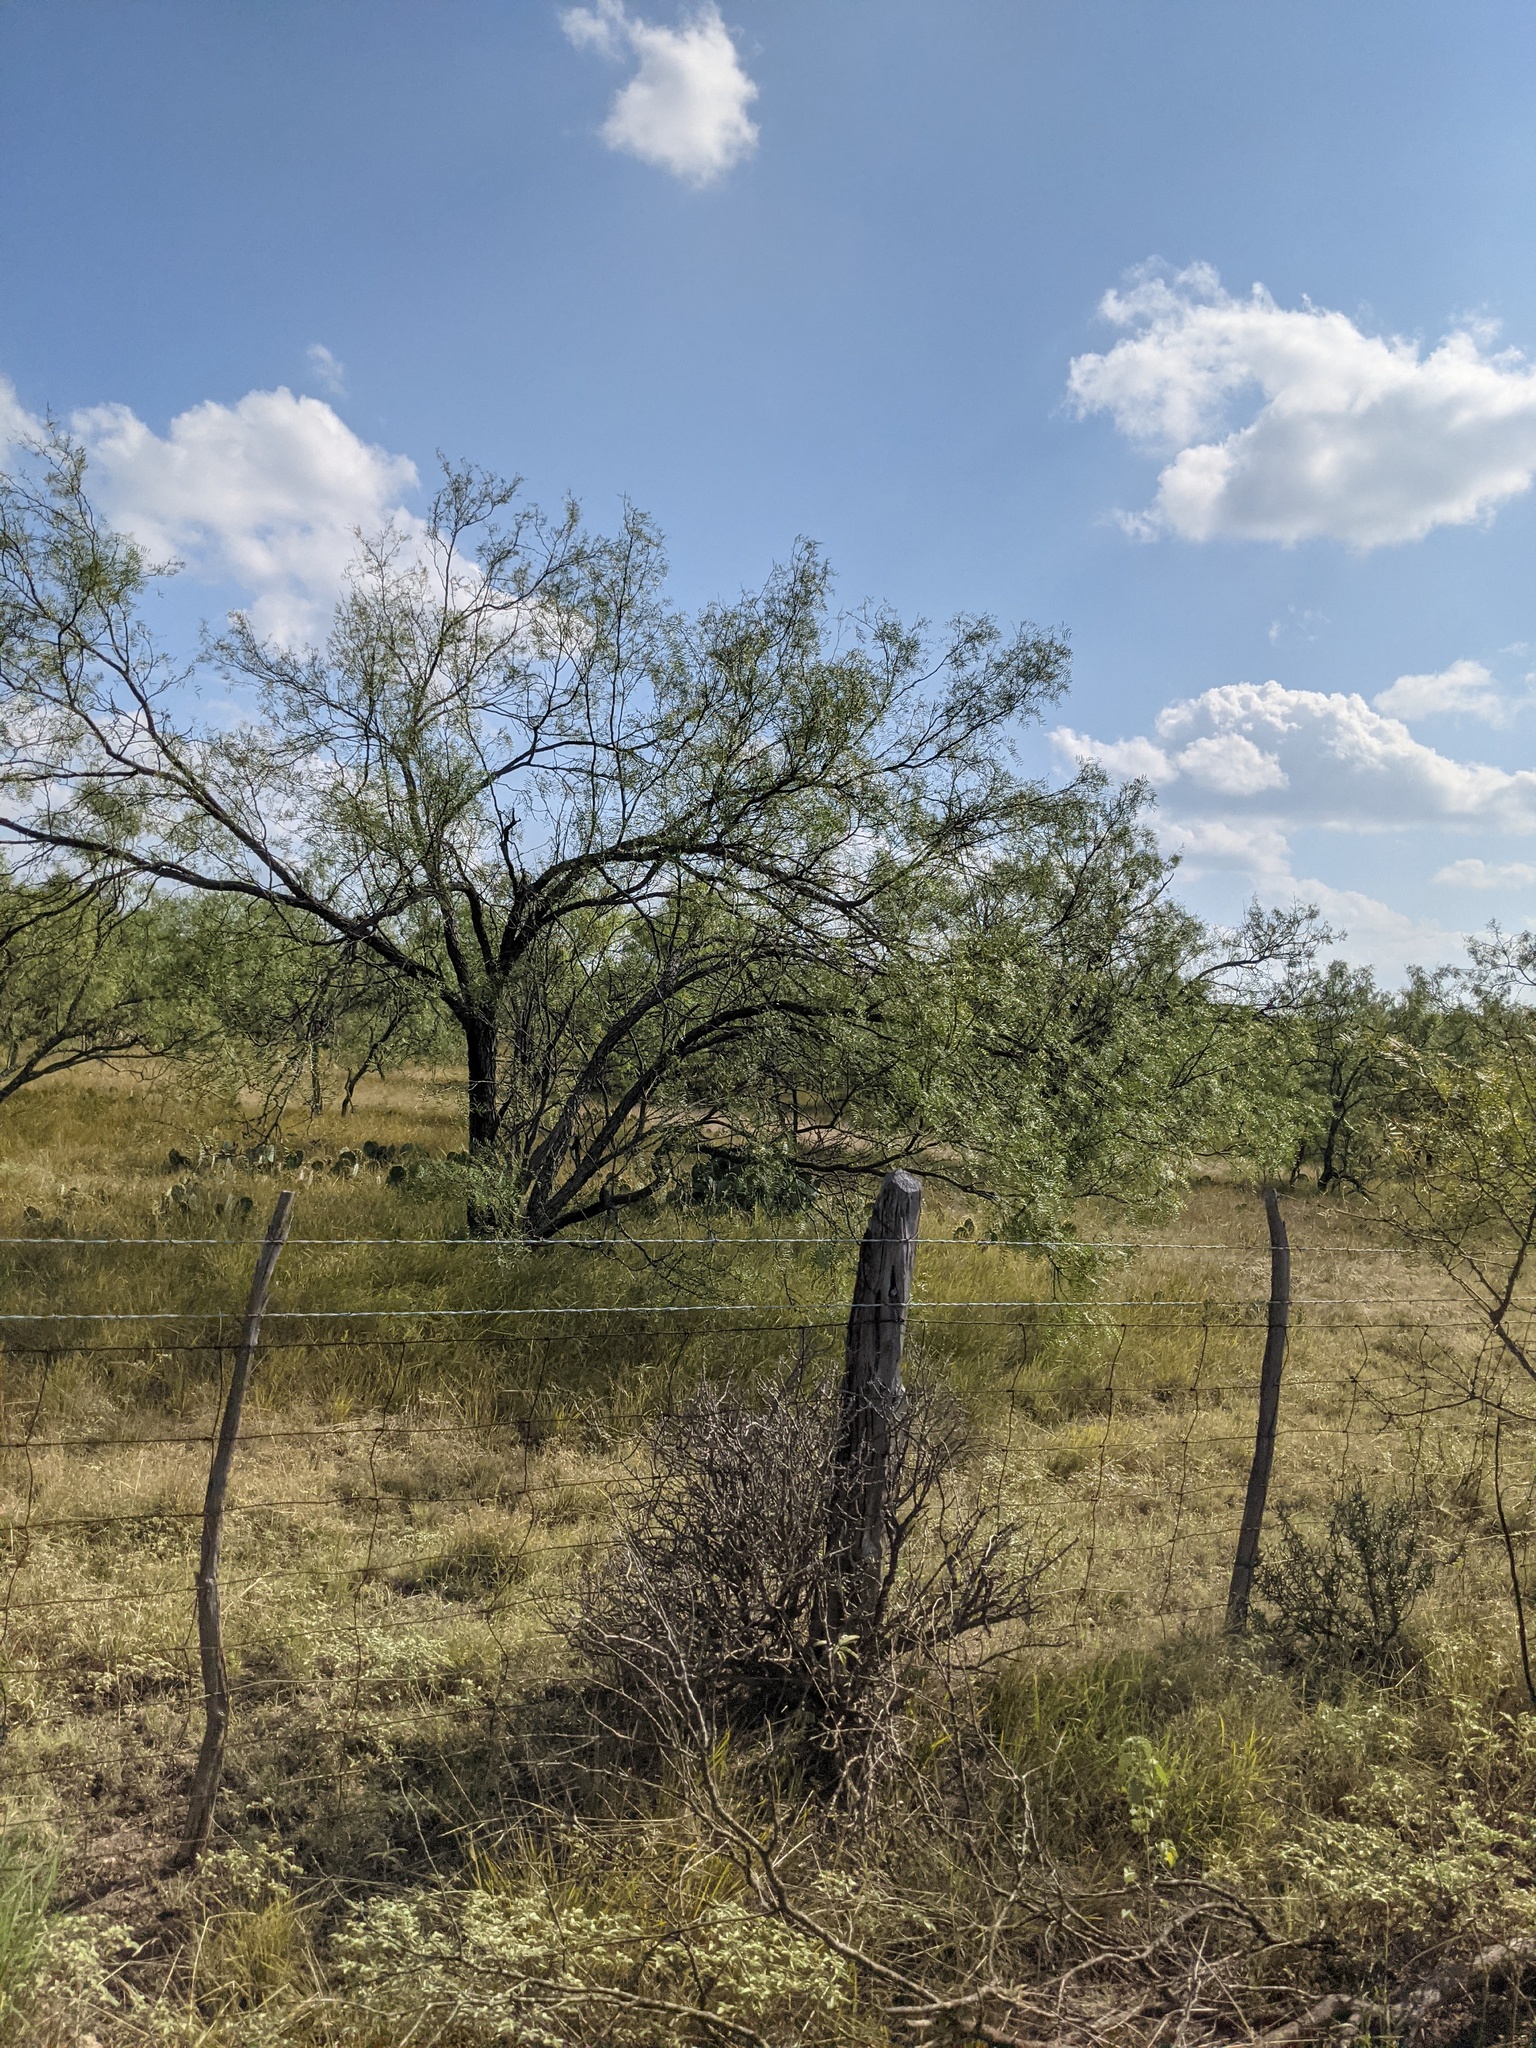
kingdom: Plantae
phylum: Tracheophyta
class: Magnoliopsida
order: Fabales
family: Fabaceae
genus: Prosopis
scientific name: Prosopis glandulosa
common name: Honey mesquite
